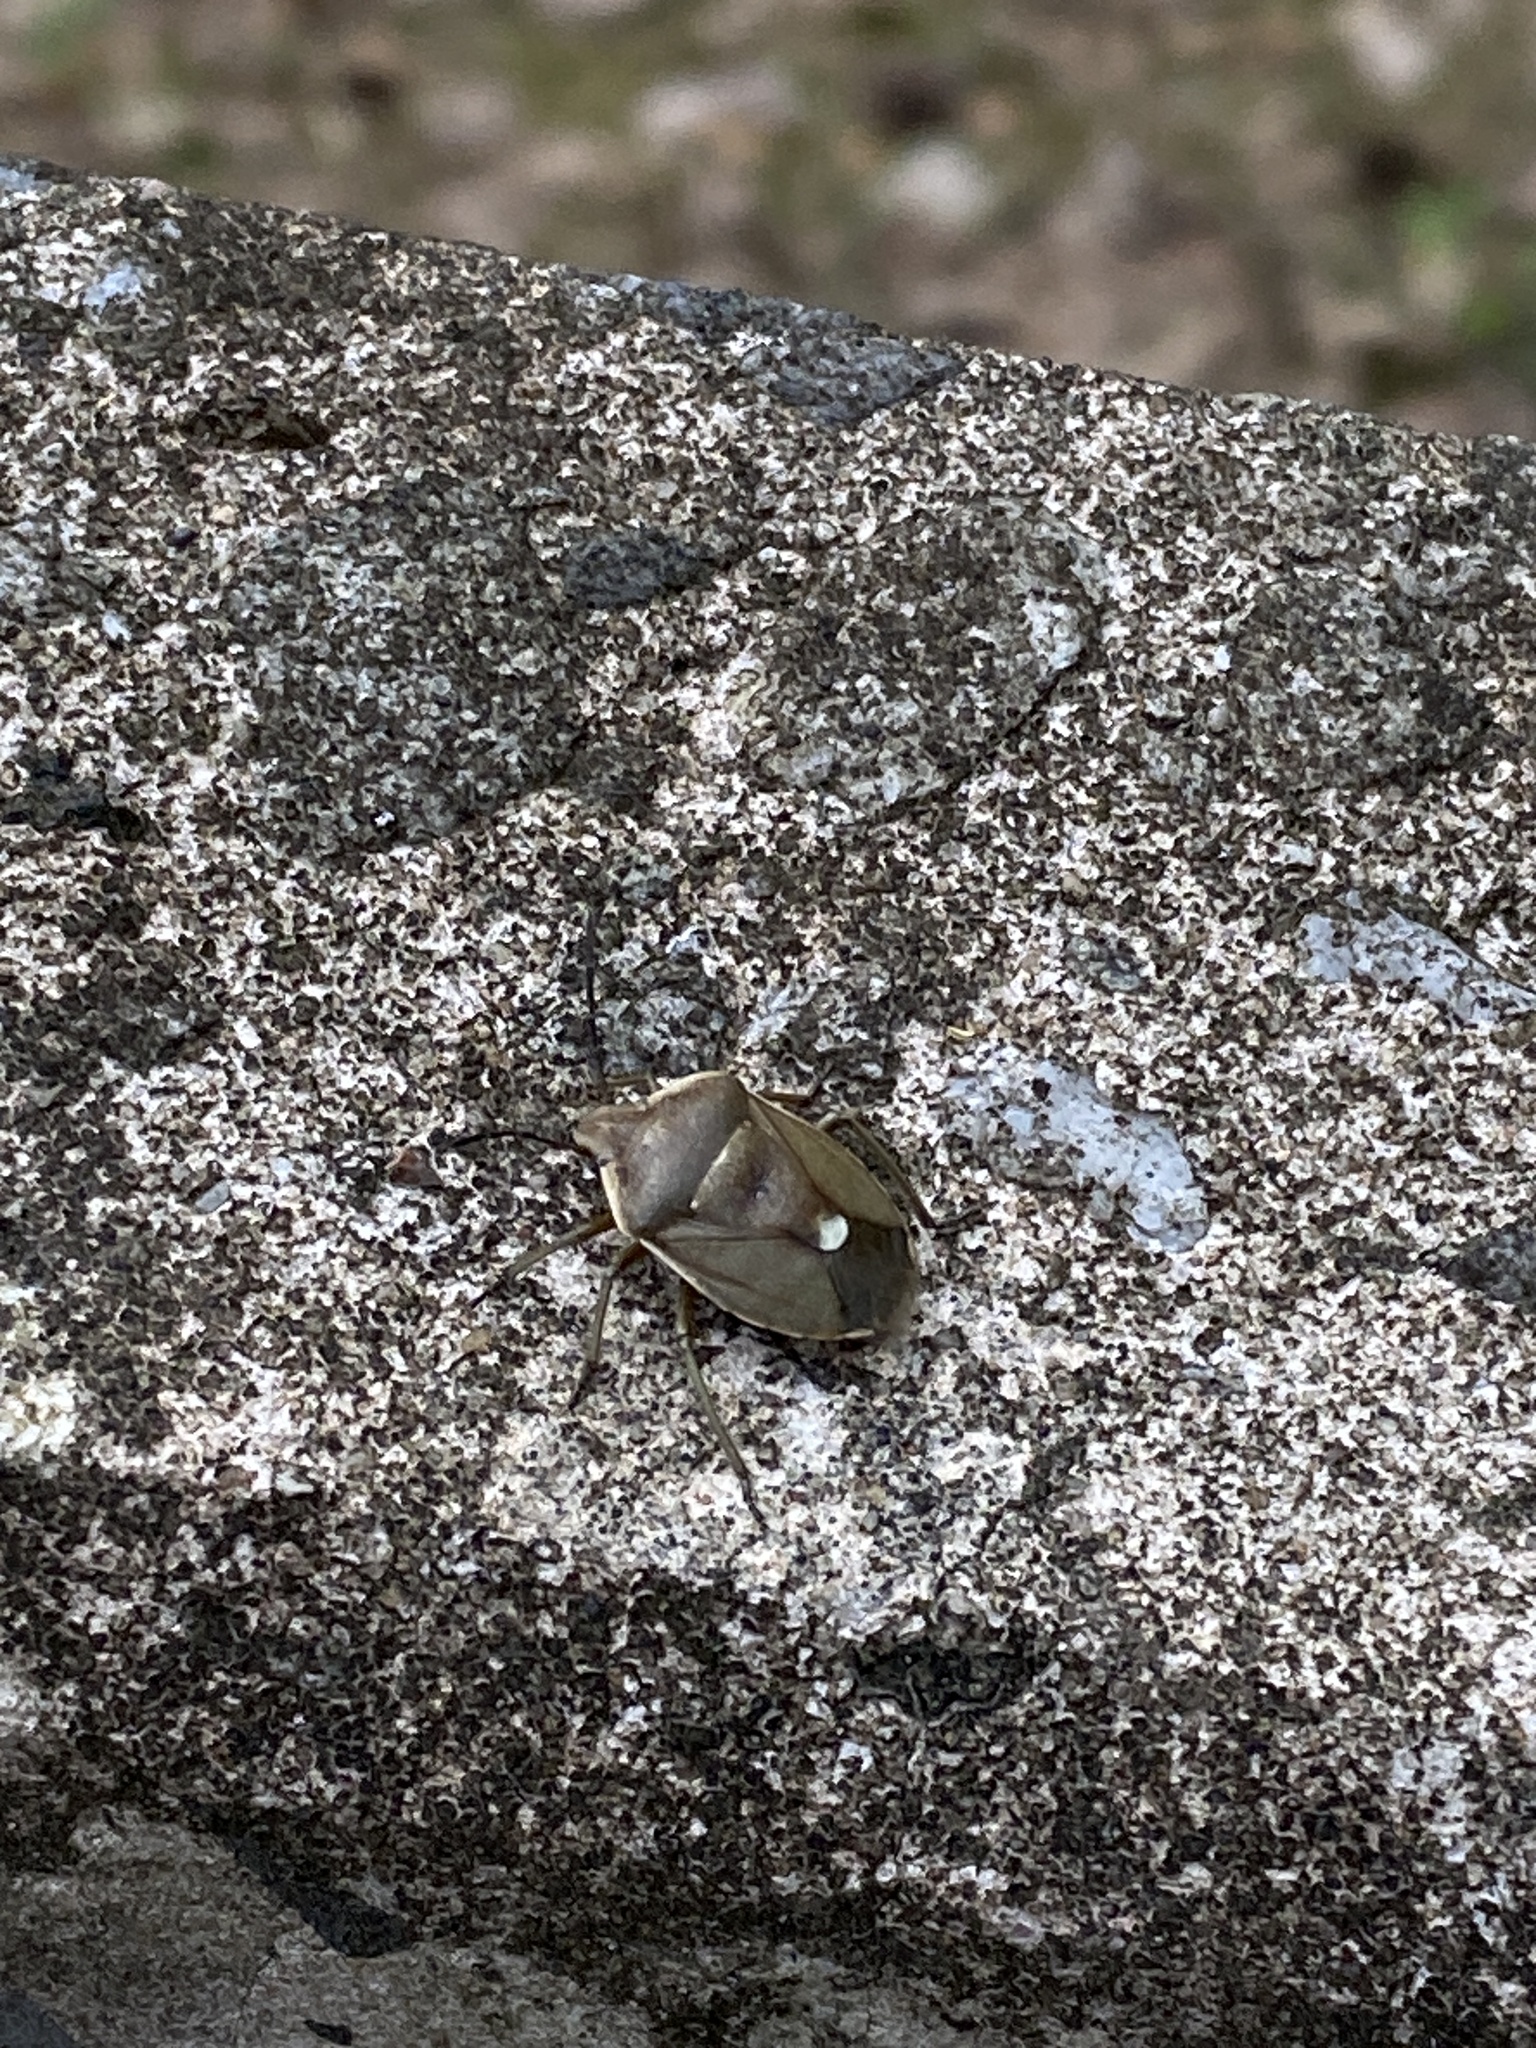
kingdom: Animalia
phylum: Arthropoda
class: Insecta
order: Hemiptera
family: Pentatomidae
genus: Chlorochroa
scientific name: Chlorochroa pinicola
